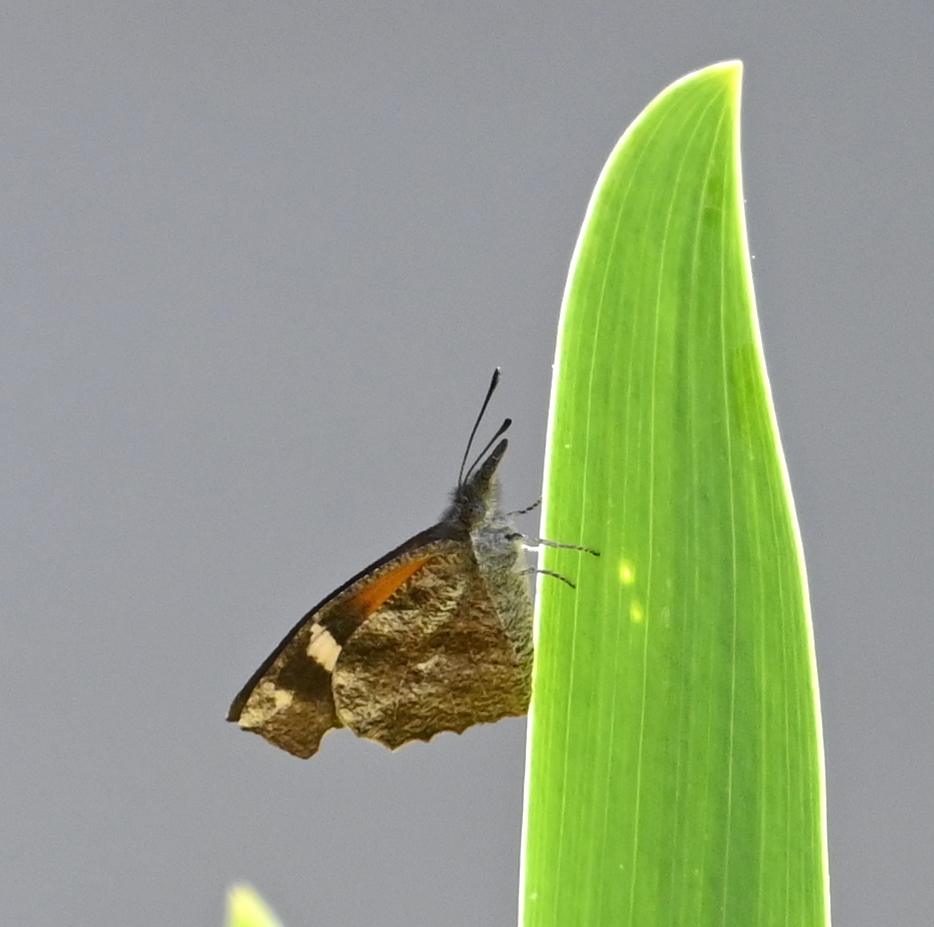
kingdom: Animalia
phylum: Arthropoda
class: Insecta
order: Lepidoptera
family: Nymphalidae
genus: Libytheana
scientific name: Libytheana carinenta
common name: American snout
